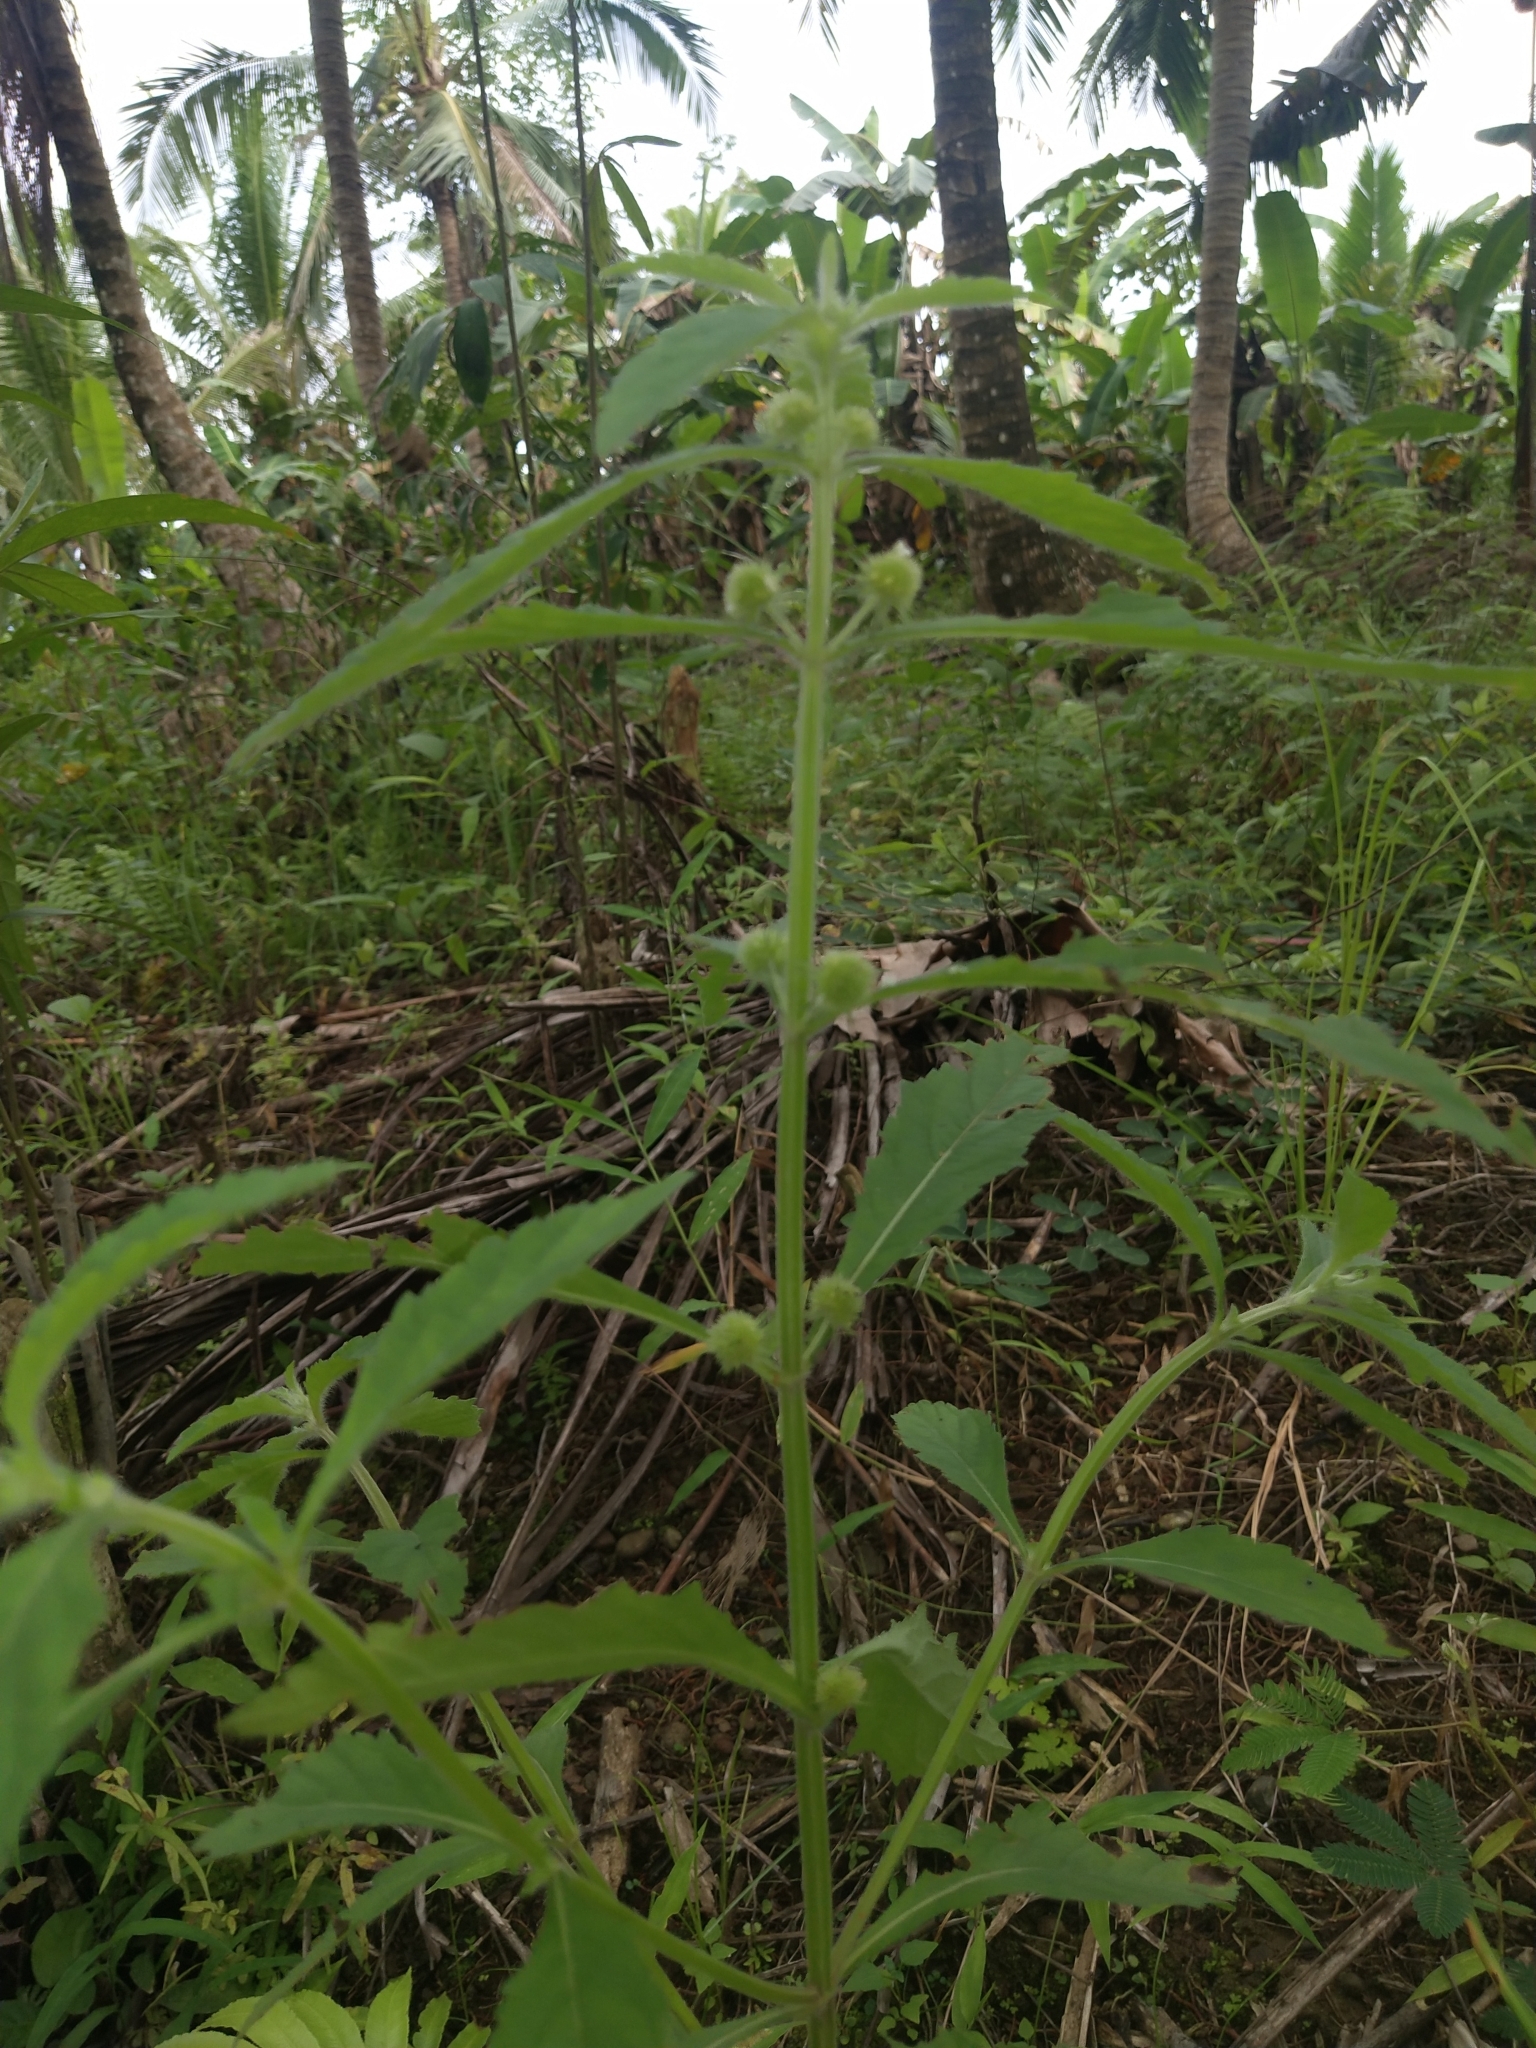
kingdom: Plantae
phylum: Tracheophyta
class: Magnoliopsida
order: Lamiales
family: Lamiaceae
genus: Hyptis
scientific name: Hyptis brevipes
